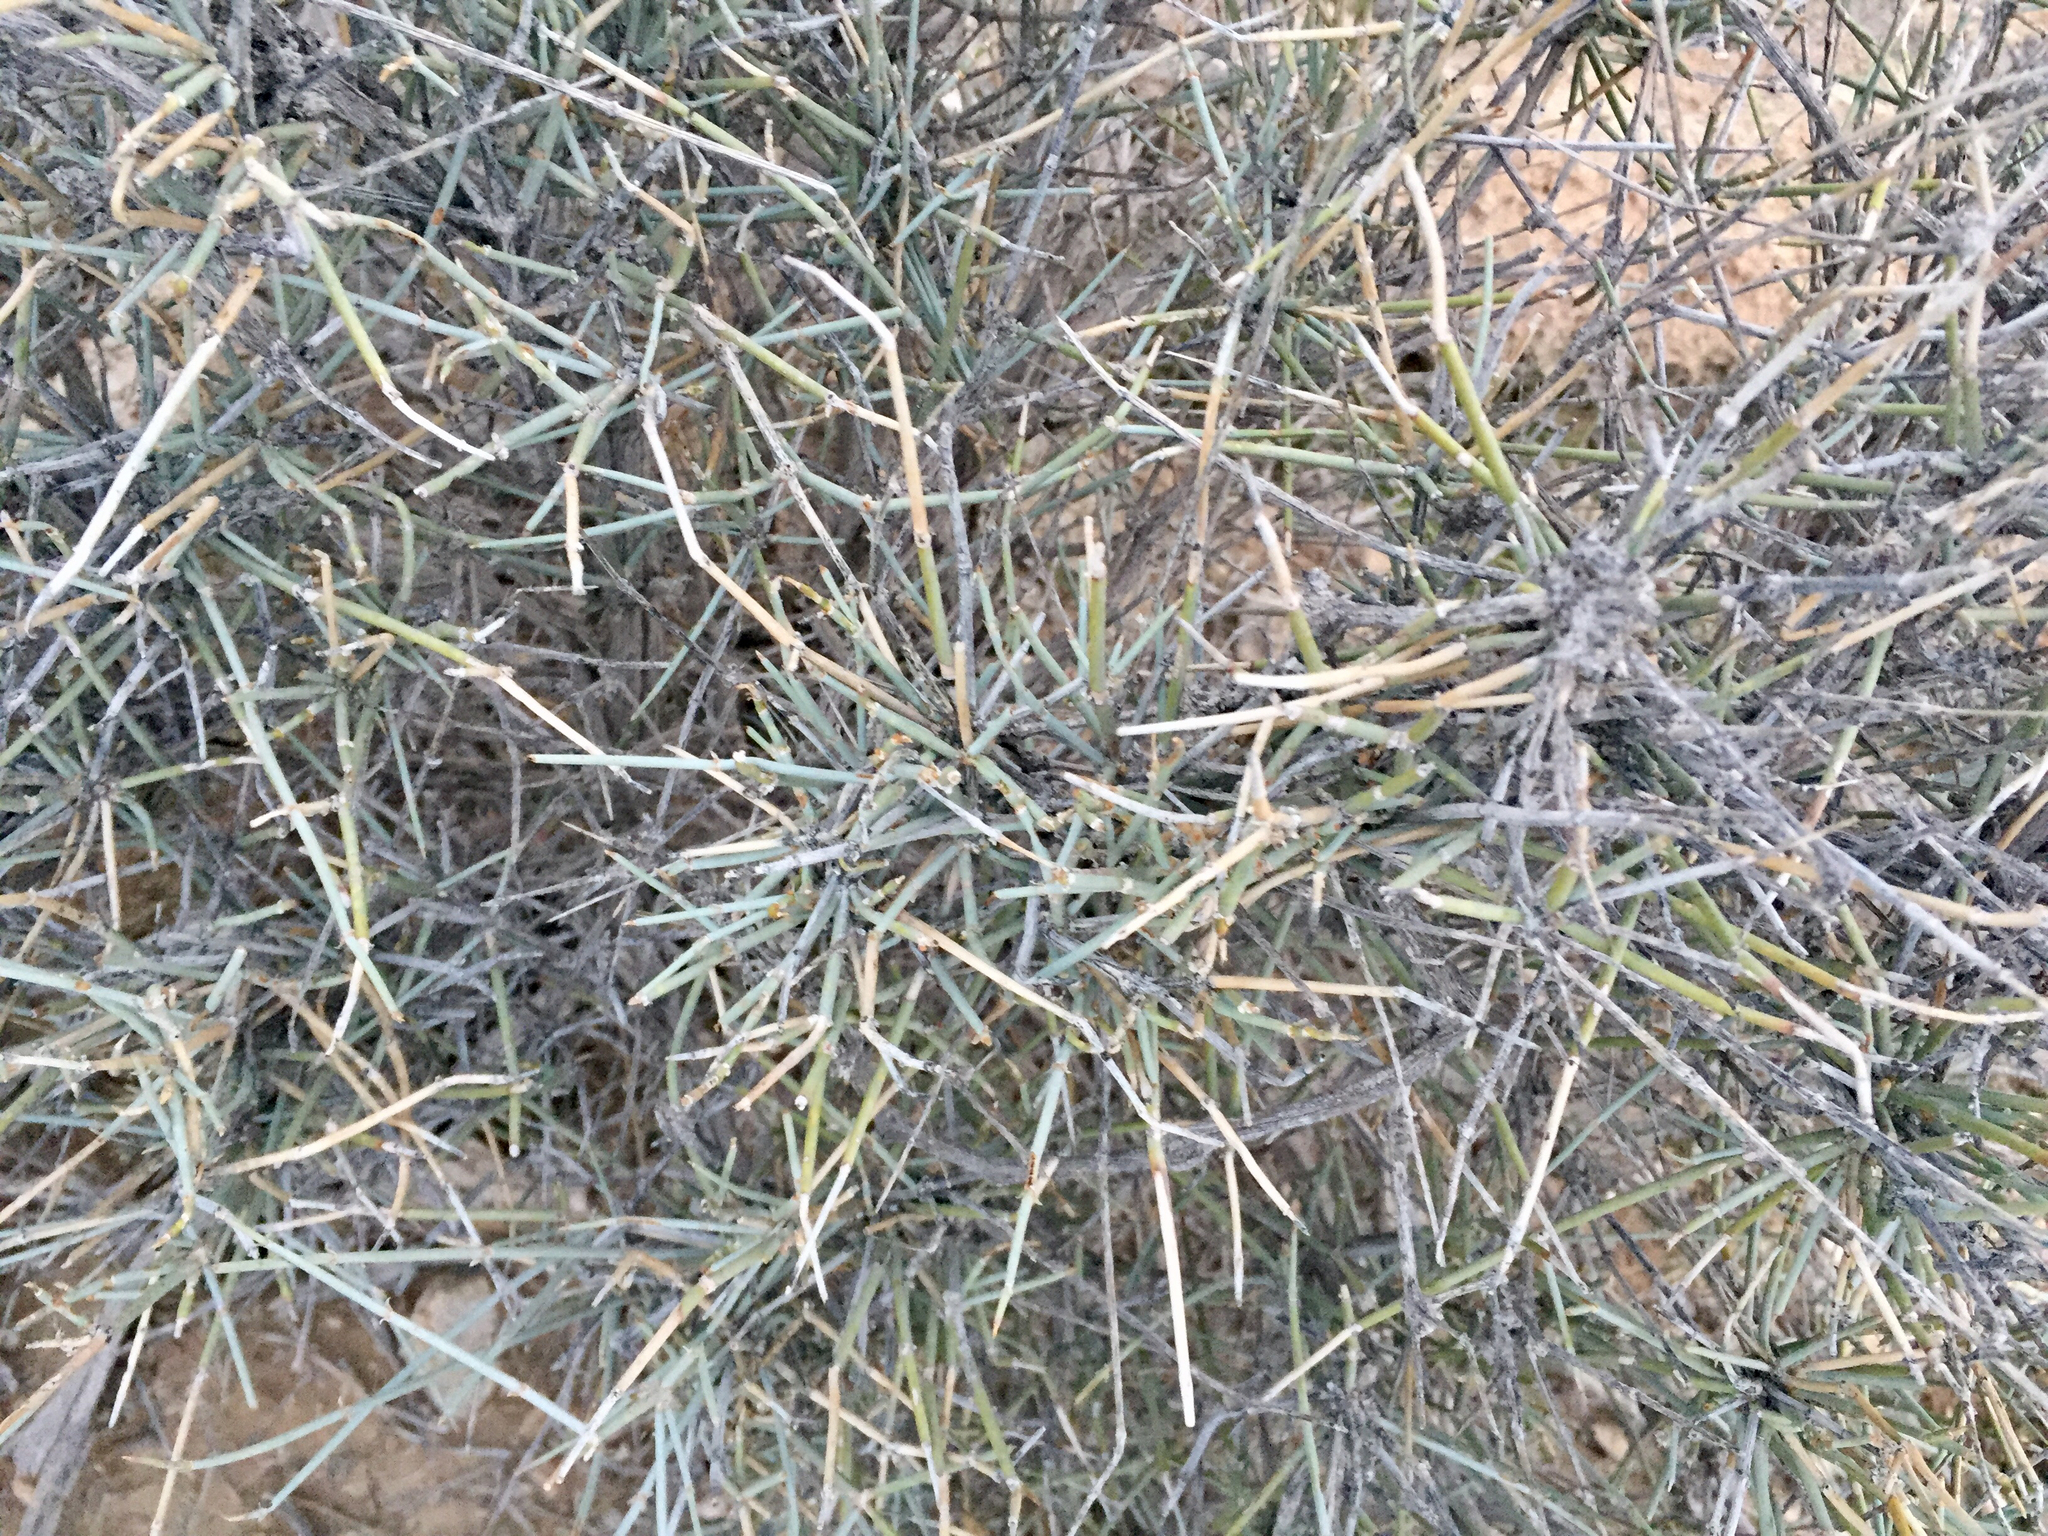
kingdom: Plantae
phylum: Tracheophyta
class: Gnetopsida
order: Ephedrales
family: Ephedraceae
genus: Ephedra
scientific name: Ephedra nevadensis
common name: Gray ephedra
